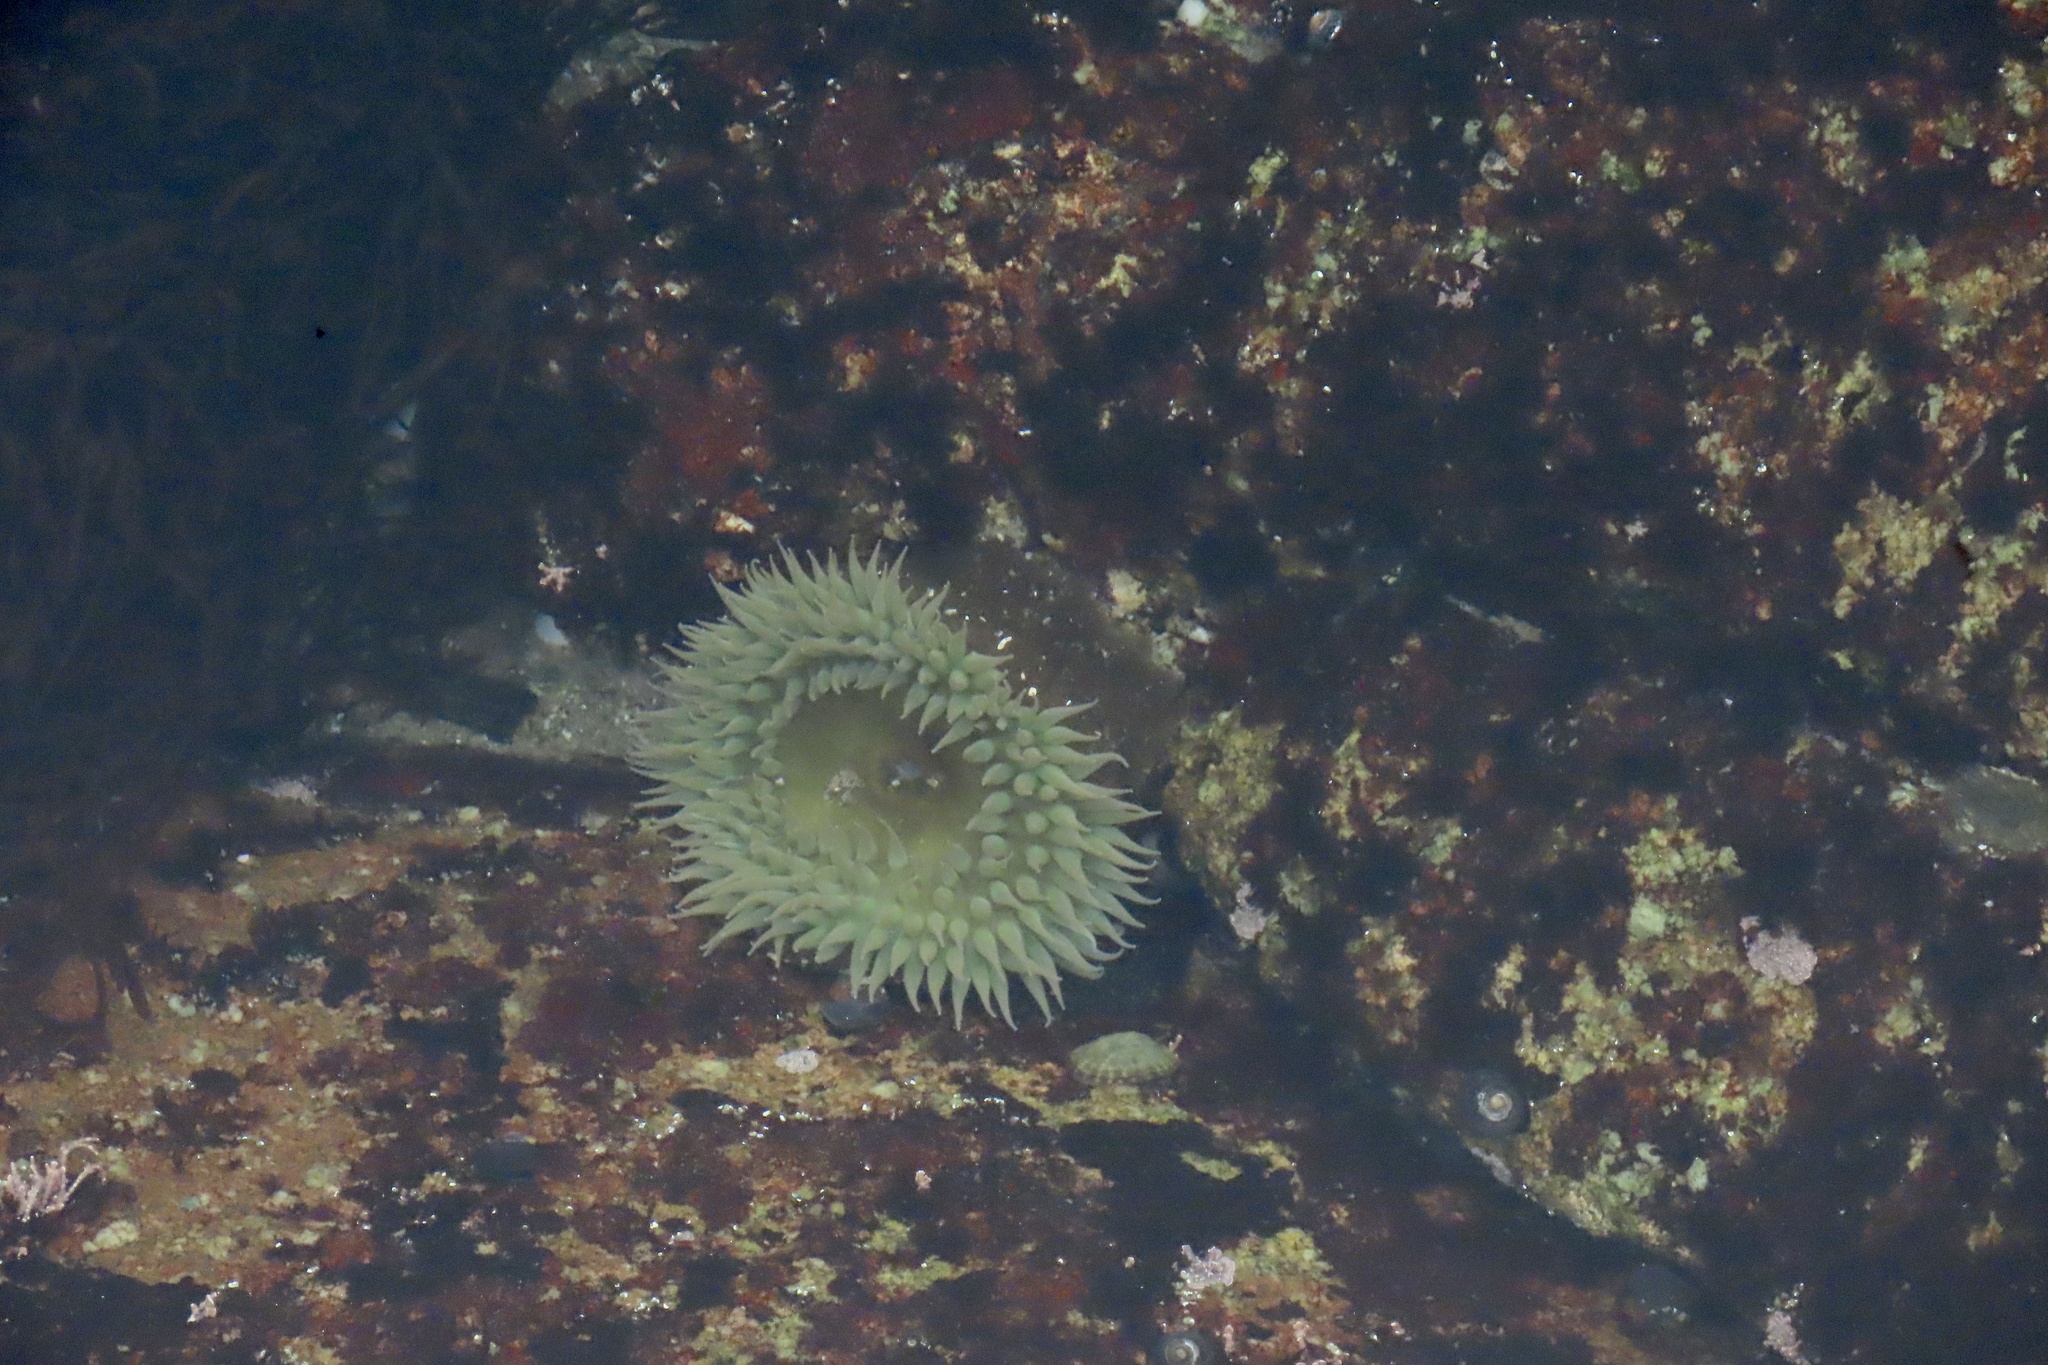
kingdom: Animalia
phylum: Cnidaria
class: Anthozoa
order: Actiniaria
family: Actiniidae
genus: Anthopleura
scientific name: Anthopleura xanthogrammica
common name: Giant green anemone
